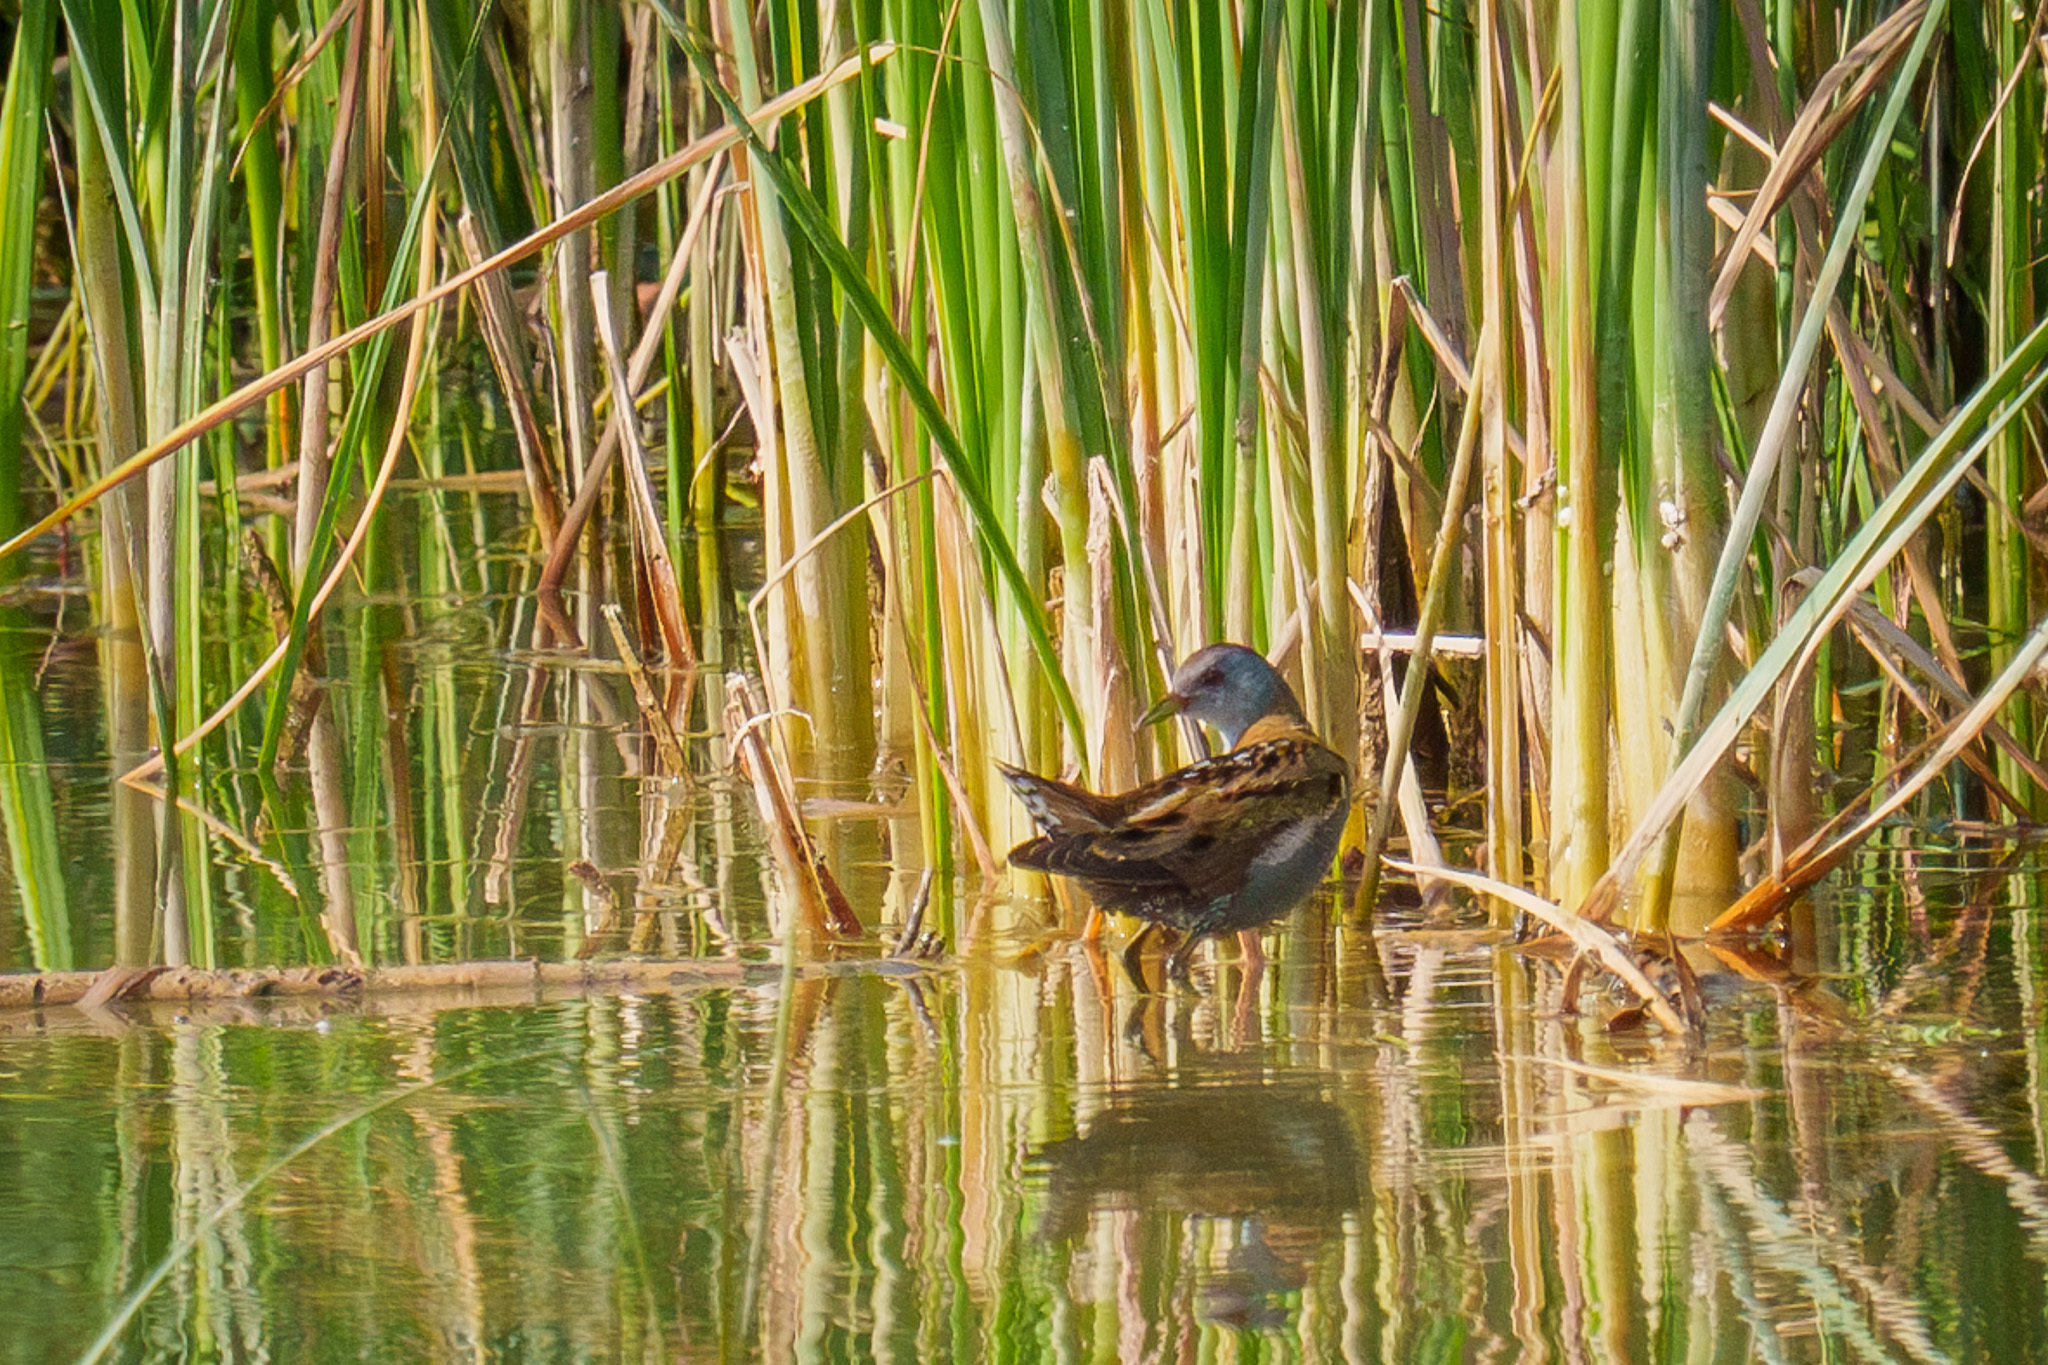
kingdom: Animalia
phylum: Chordata
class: Aves
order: Gruiformes
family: Rallidae
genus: Porzana
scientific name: Porzana parva
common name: Little crake
